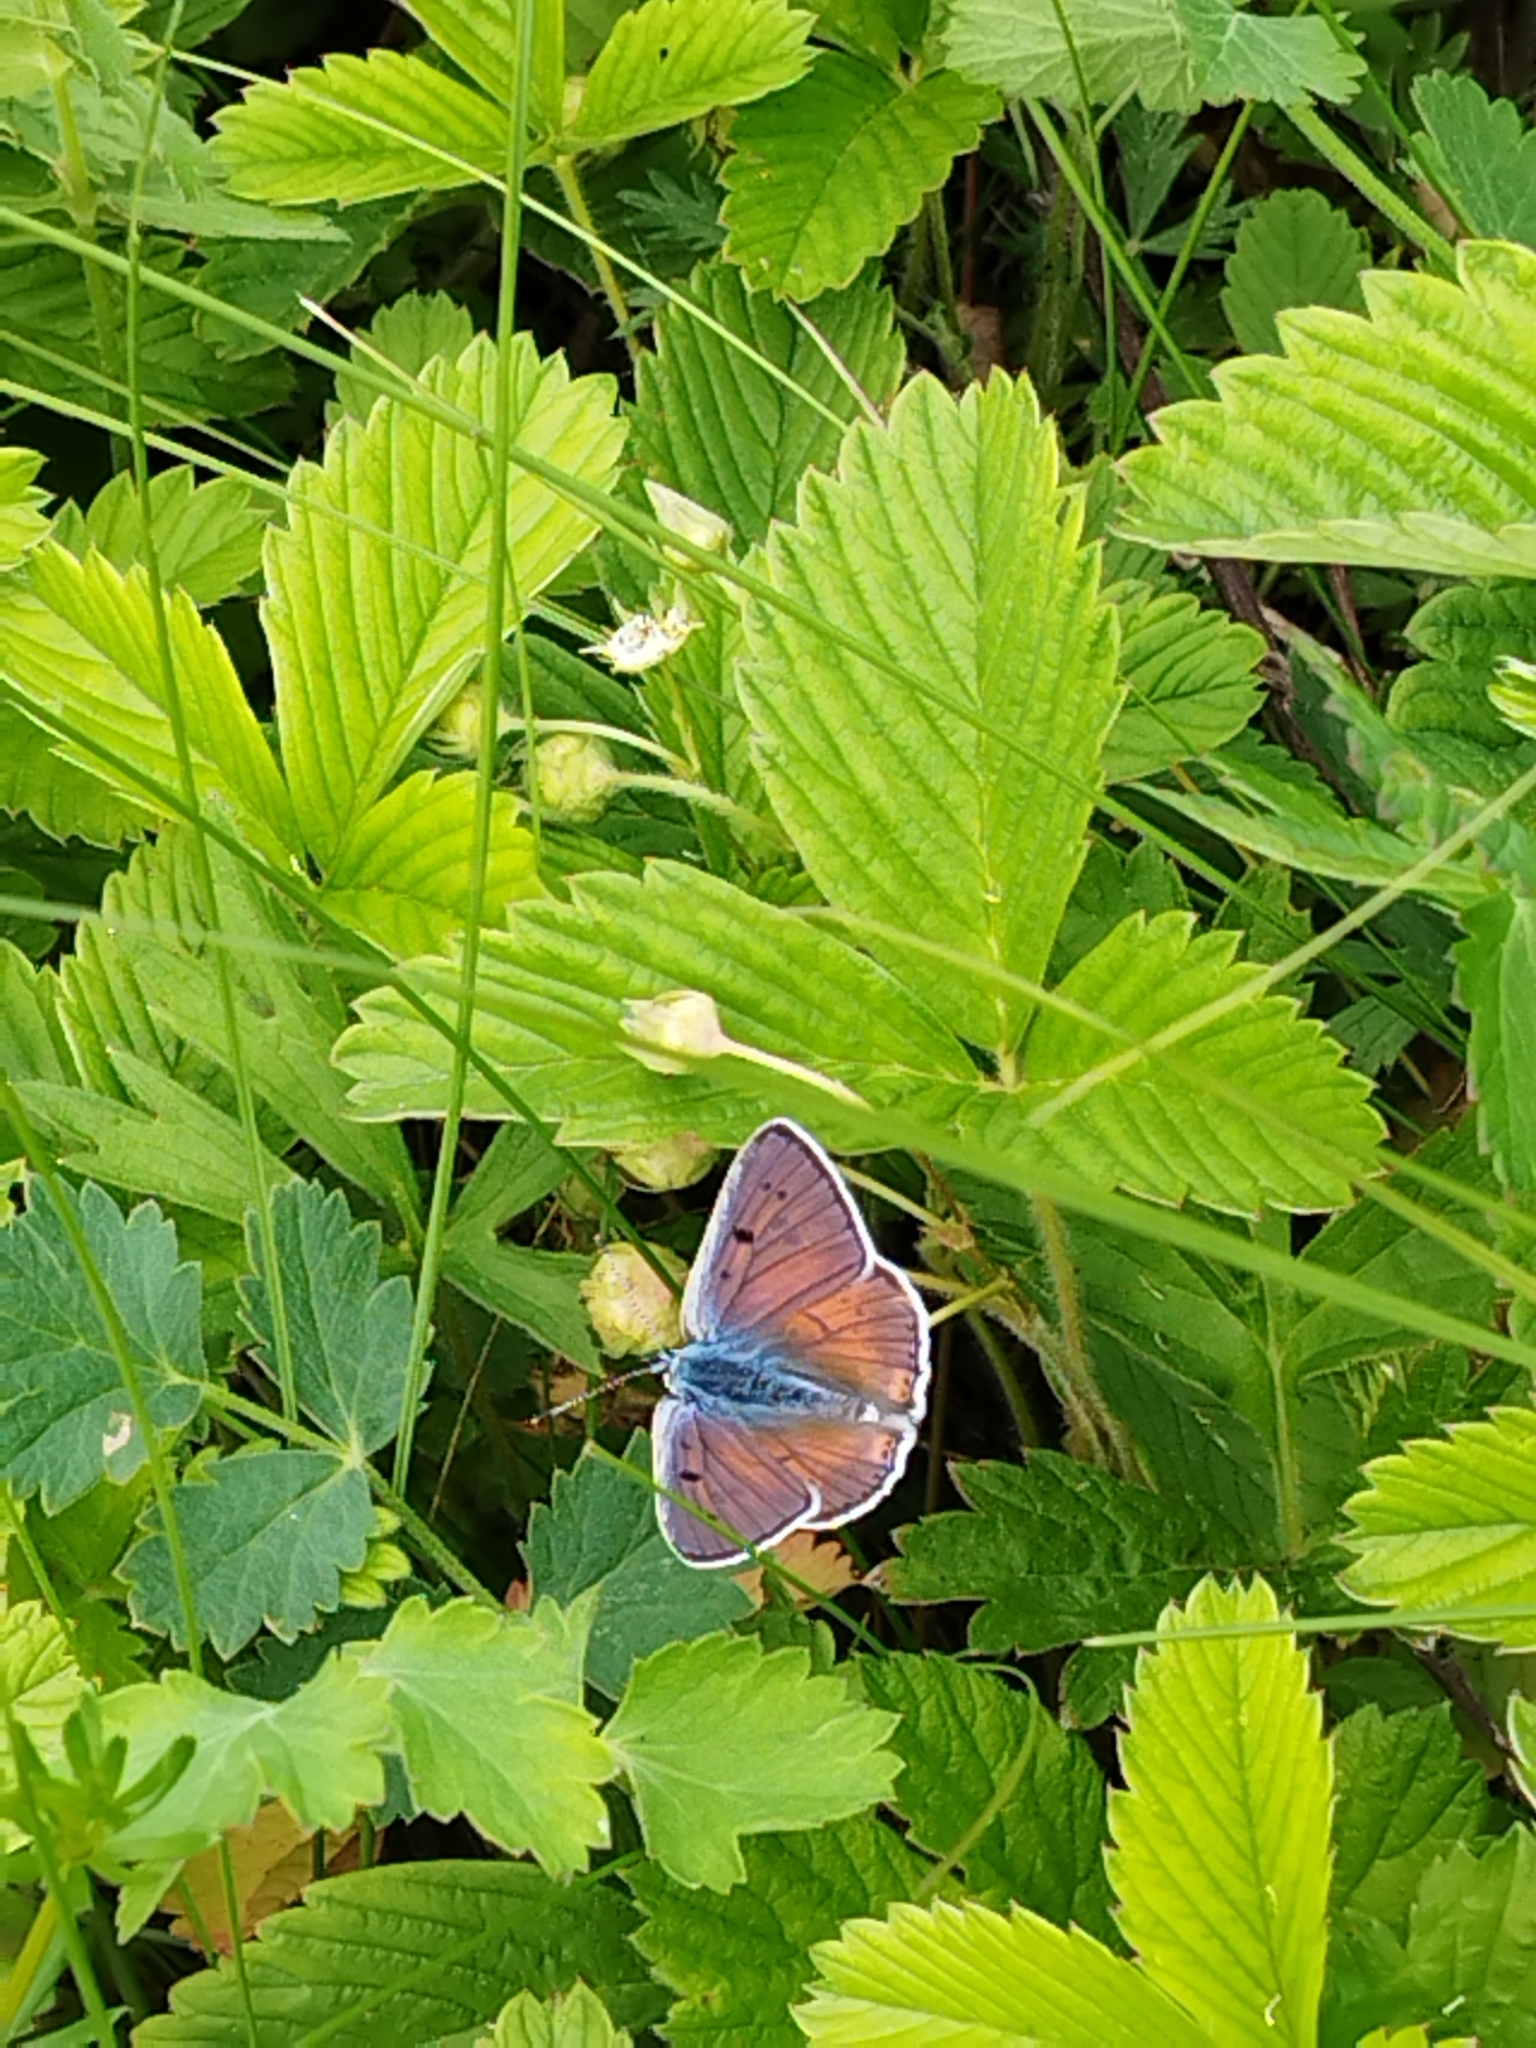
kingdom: Animalia
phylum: Arthropoda
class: Insecta
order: Lepidoptera
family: Lycaenidae
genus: Lycaena
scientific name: Lycaena alciphron
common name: Purple-shot copper
